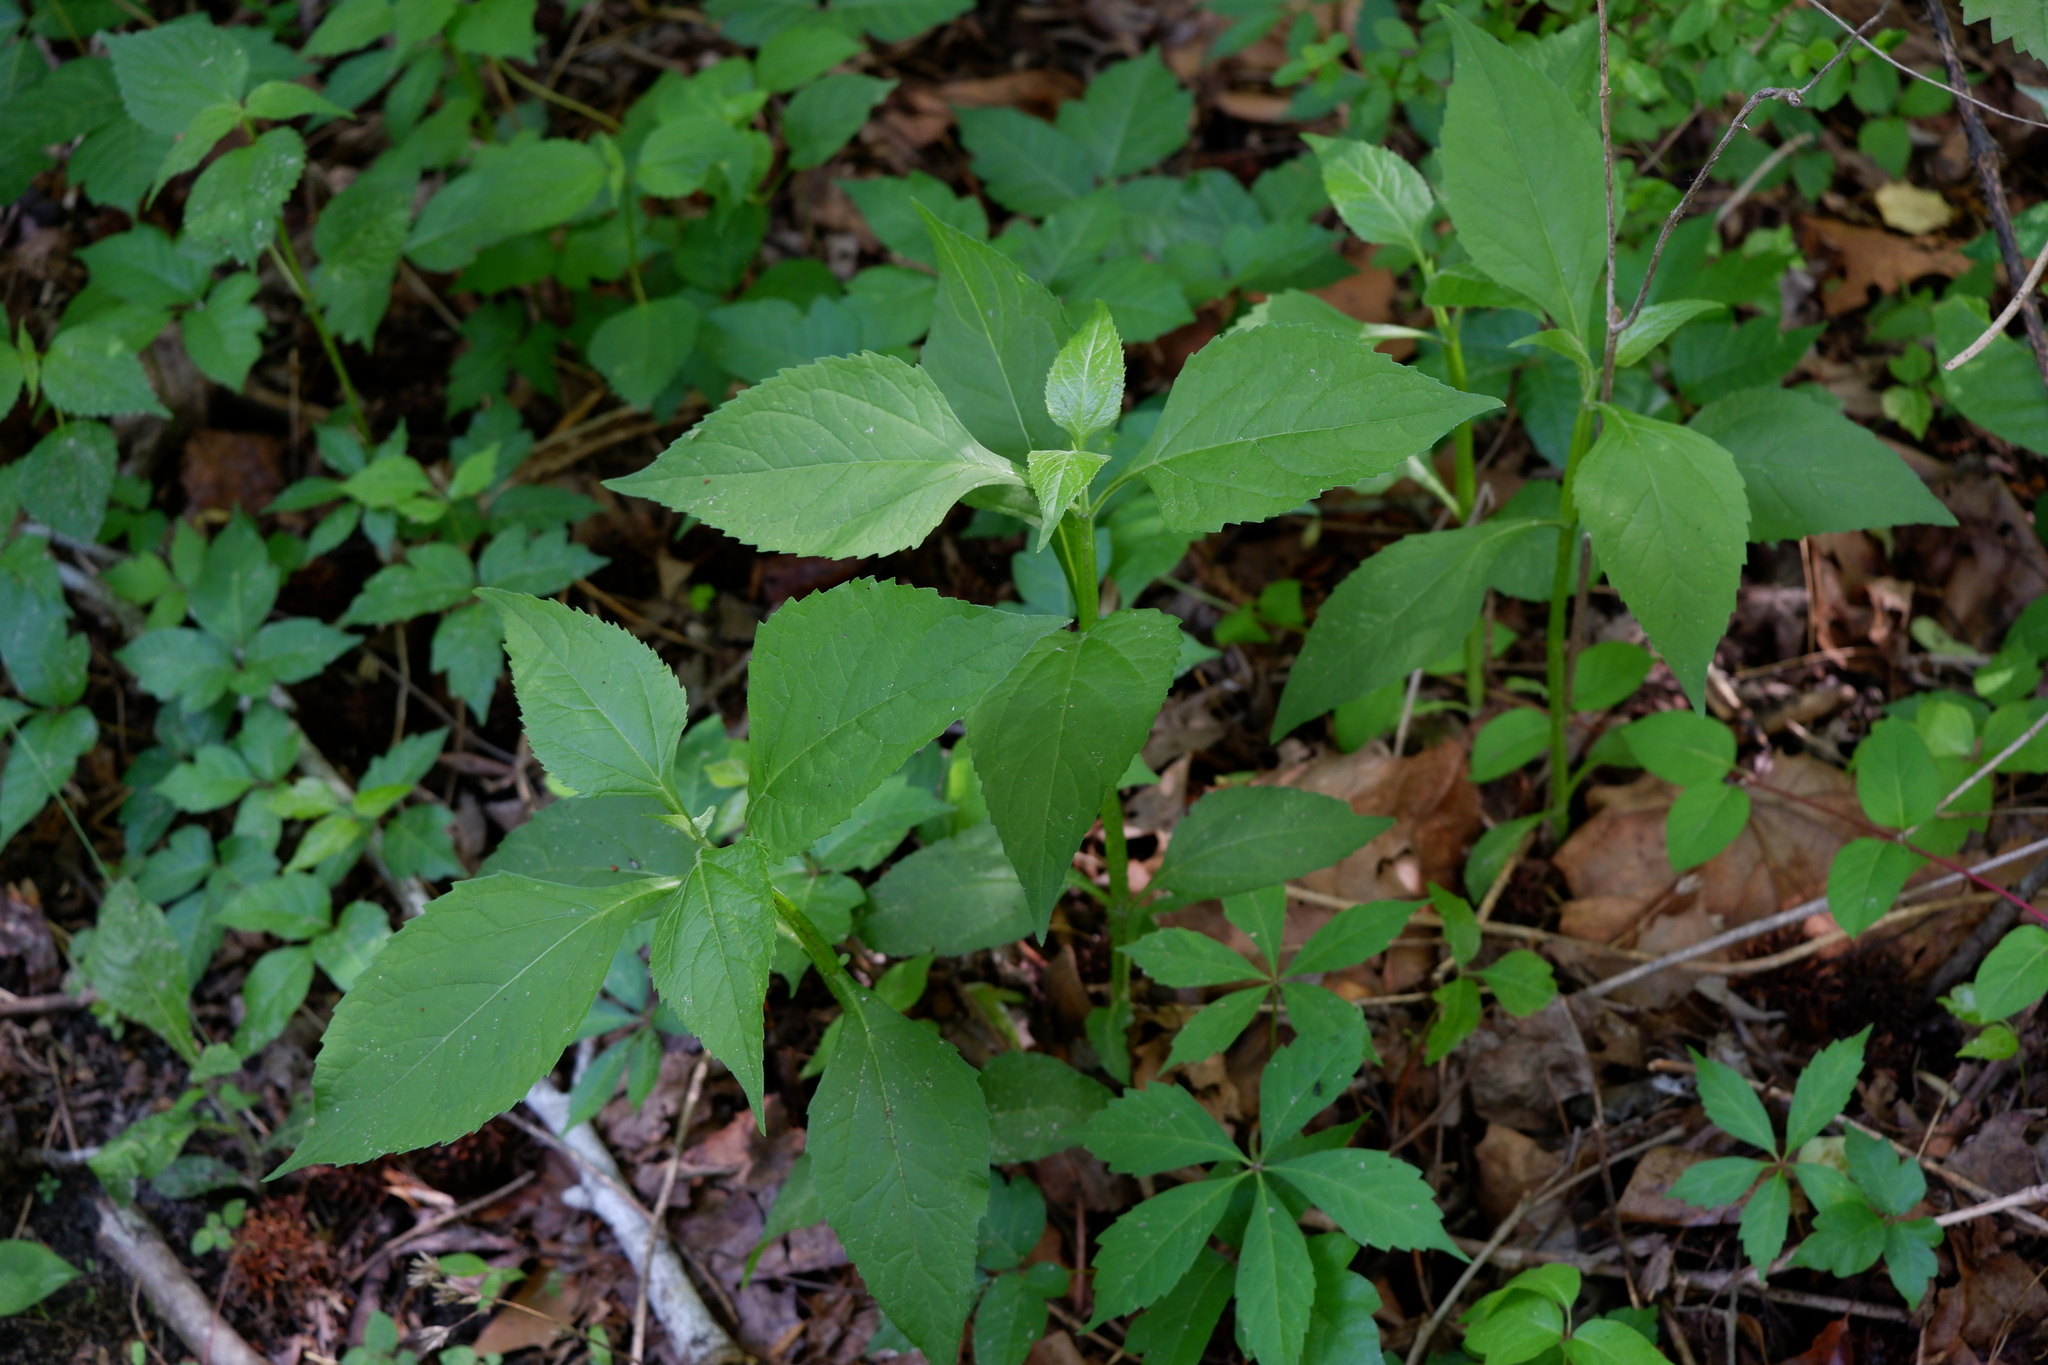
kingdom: Plantae
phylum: Tracheophyta
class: Magnoliopsida
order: Asterales
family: Asteraceae
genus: Verbesina
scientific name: Verbesina occidentalis
